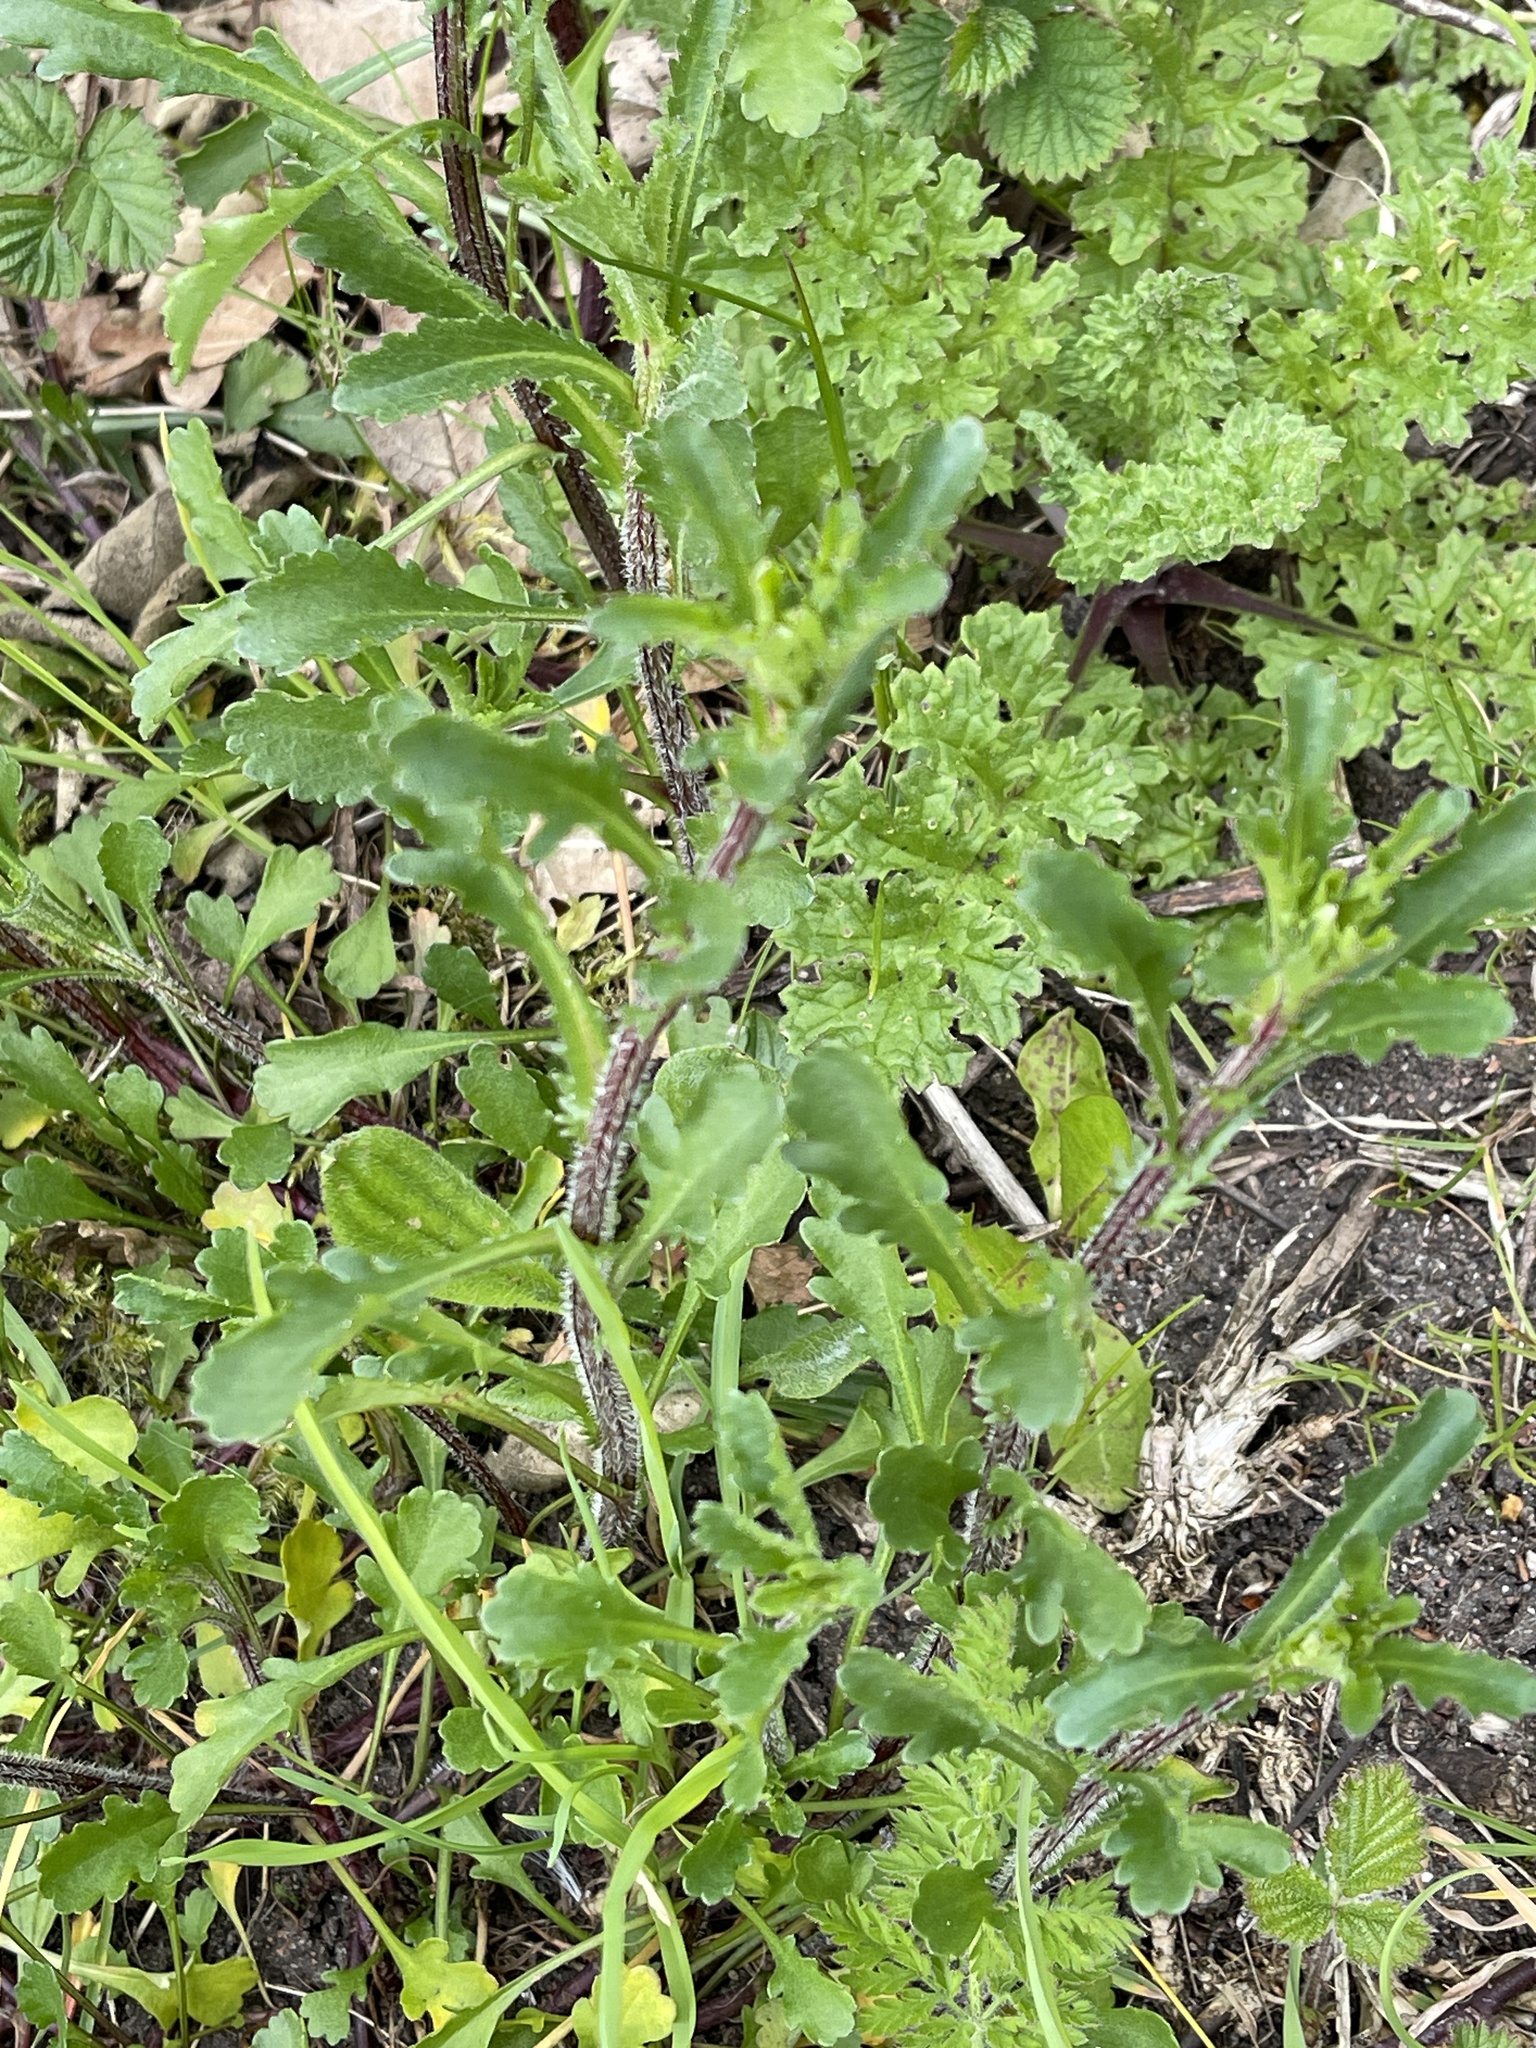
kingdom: Plantae
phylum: Tracheophyta
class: Magnoliopsida
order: Asterales
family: Asteraceae
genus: Leucanthemum
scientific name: Leucanthemum vulgare
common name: Oxeye daisy
